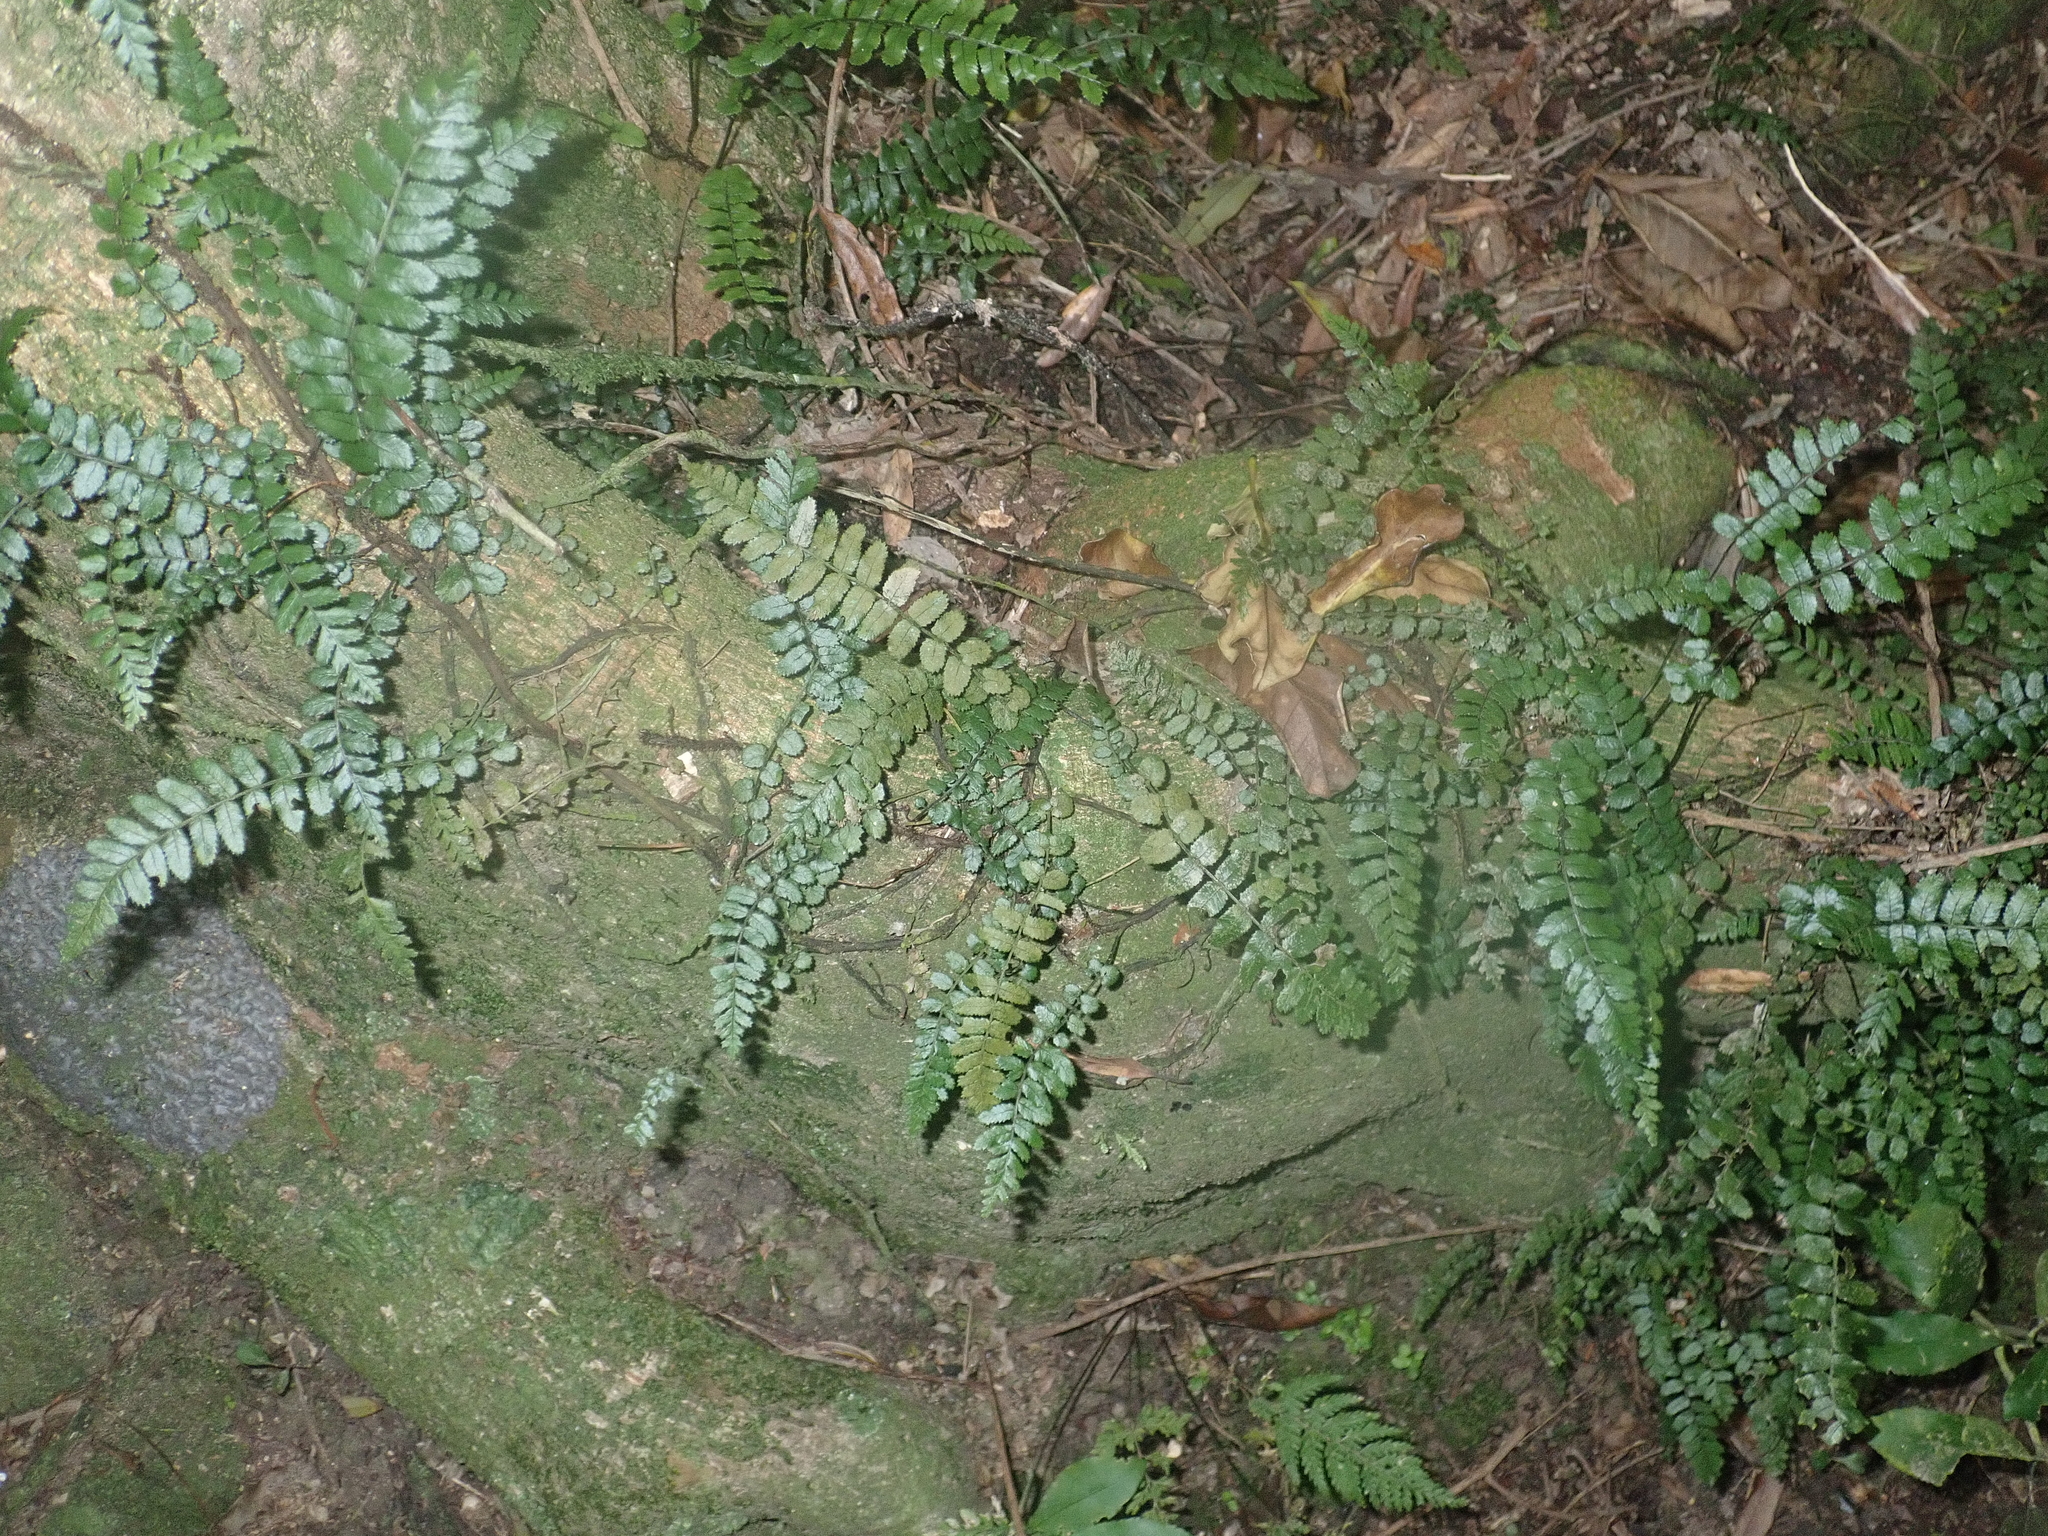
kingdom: Plantae
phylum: Tracheophyta
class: Polypodiopsida
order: Polypodiales
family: Blechnaceae
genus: Icarus
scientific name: Icarus filiformis
